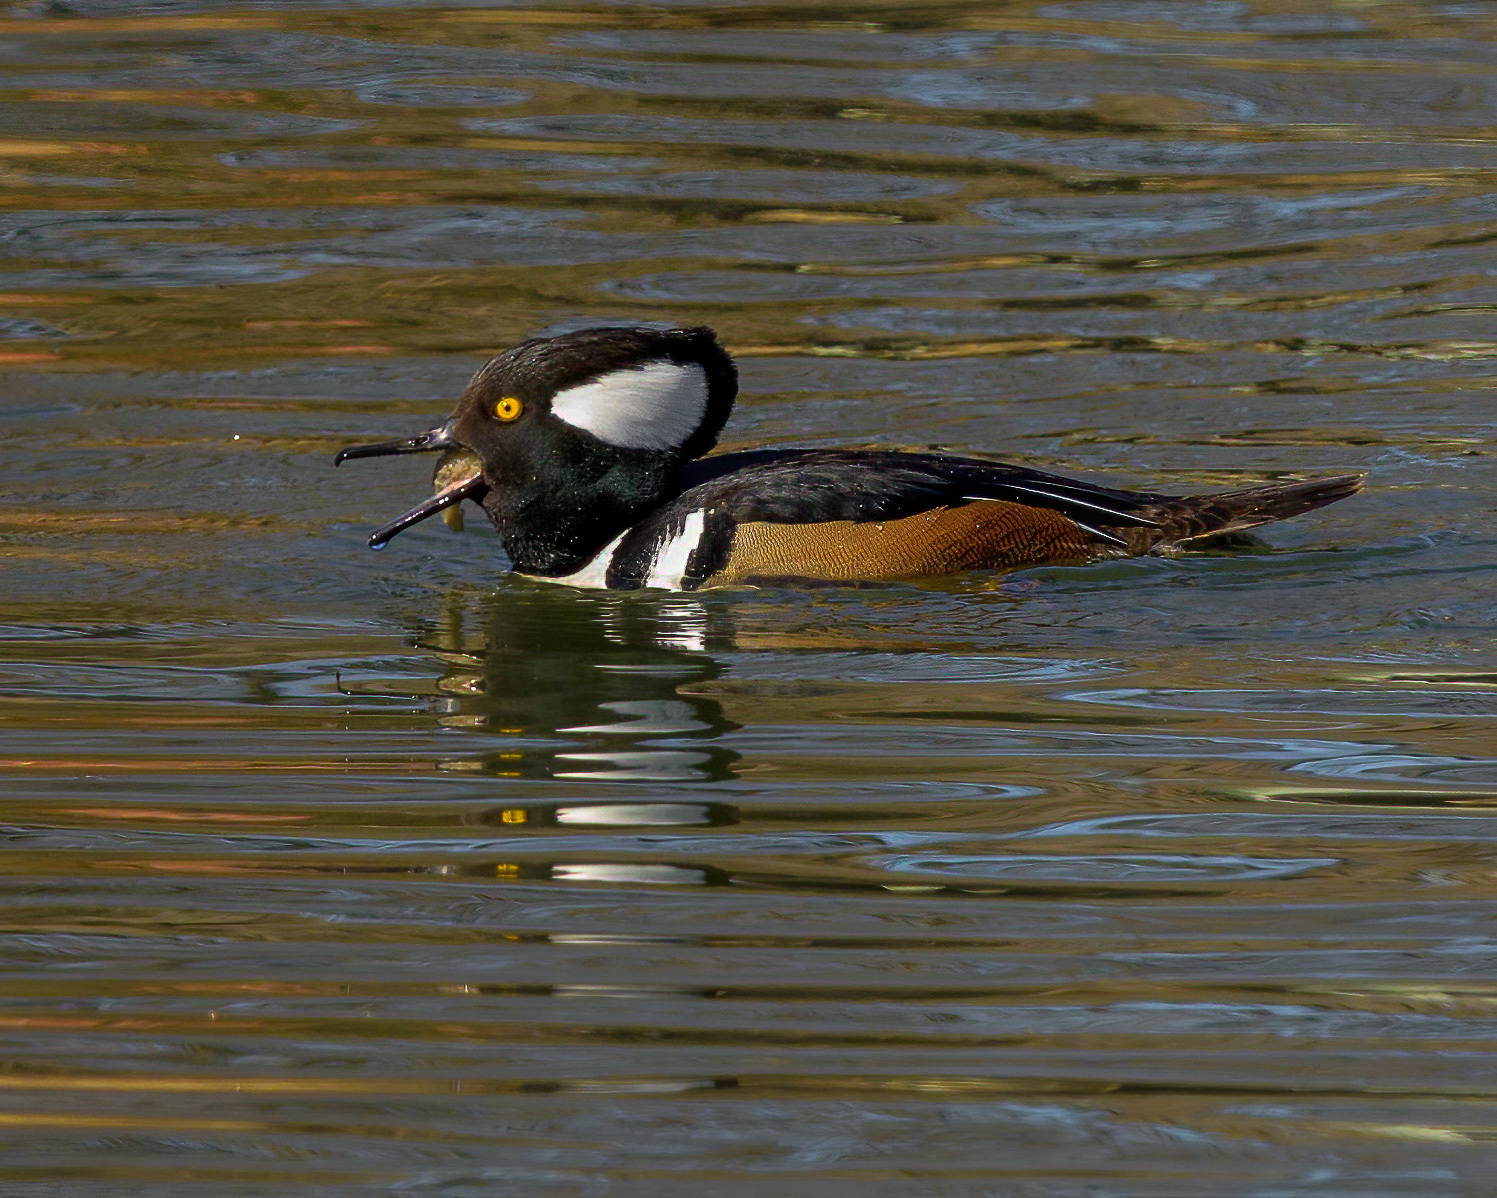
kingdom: Animalia
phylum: Chordata
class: Aves
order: Anseriformes
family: Anatidae
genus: Lophodytes
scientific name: Lophodytes cucullatus
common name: Hooded merganser
